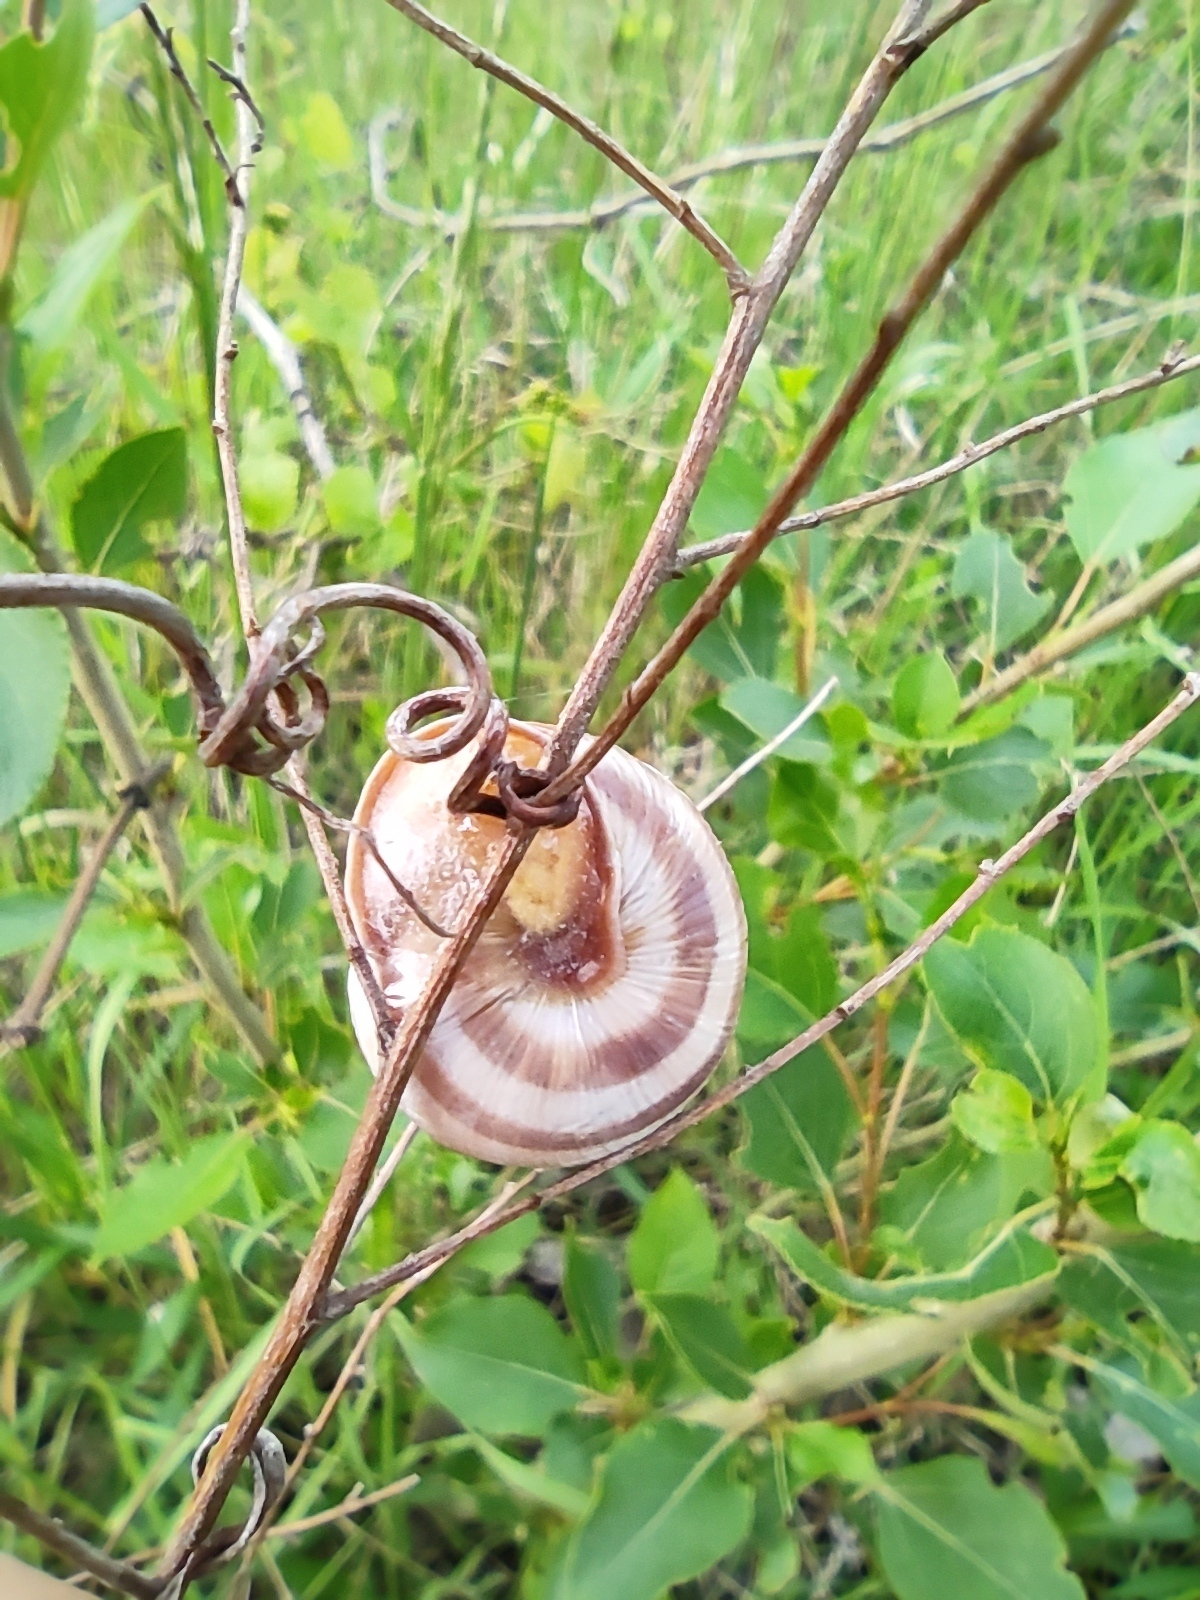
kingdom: Animalia
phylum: Mollusca
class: Gastropoda
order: Stylommatophora
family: Helicidae
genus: Caucasotachea
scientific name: Caucasotachea vindobonensis
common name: European helicid land snail
